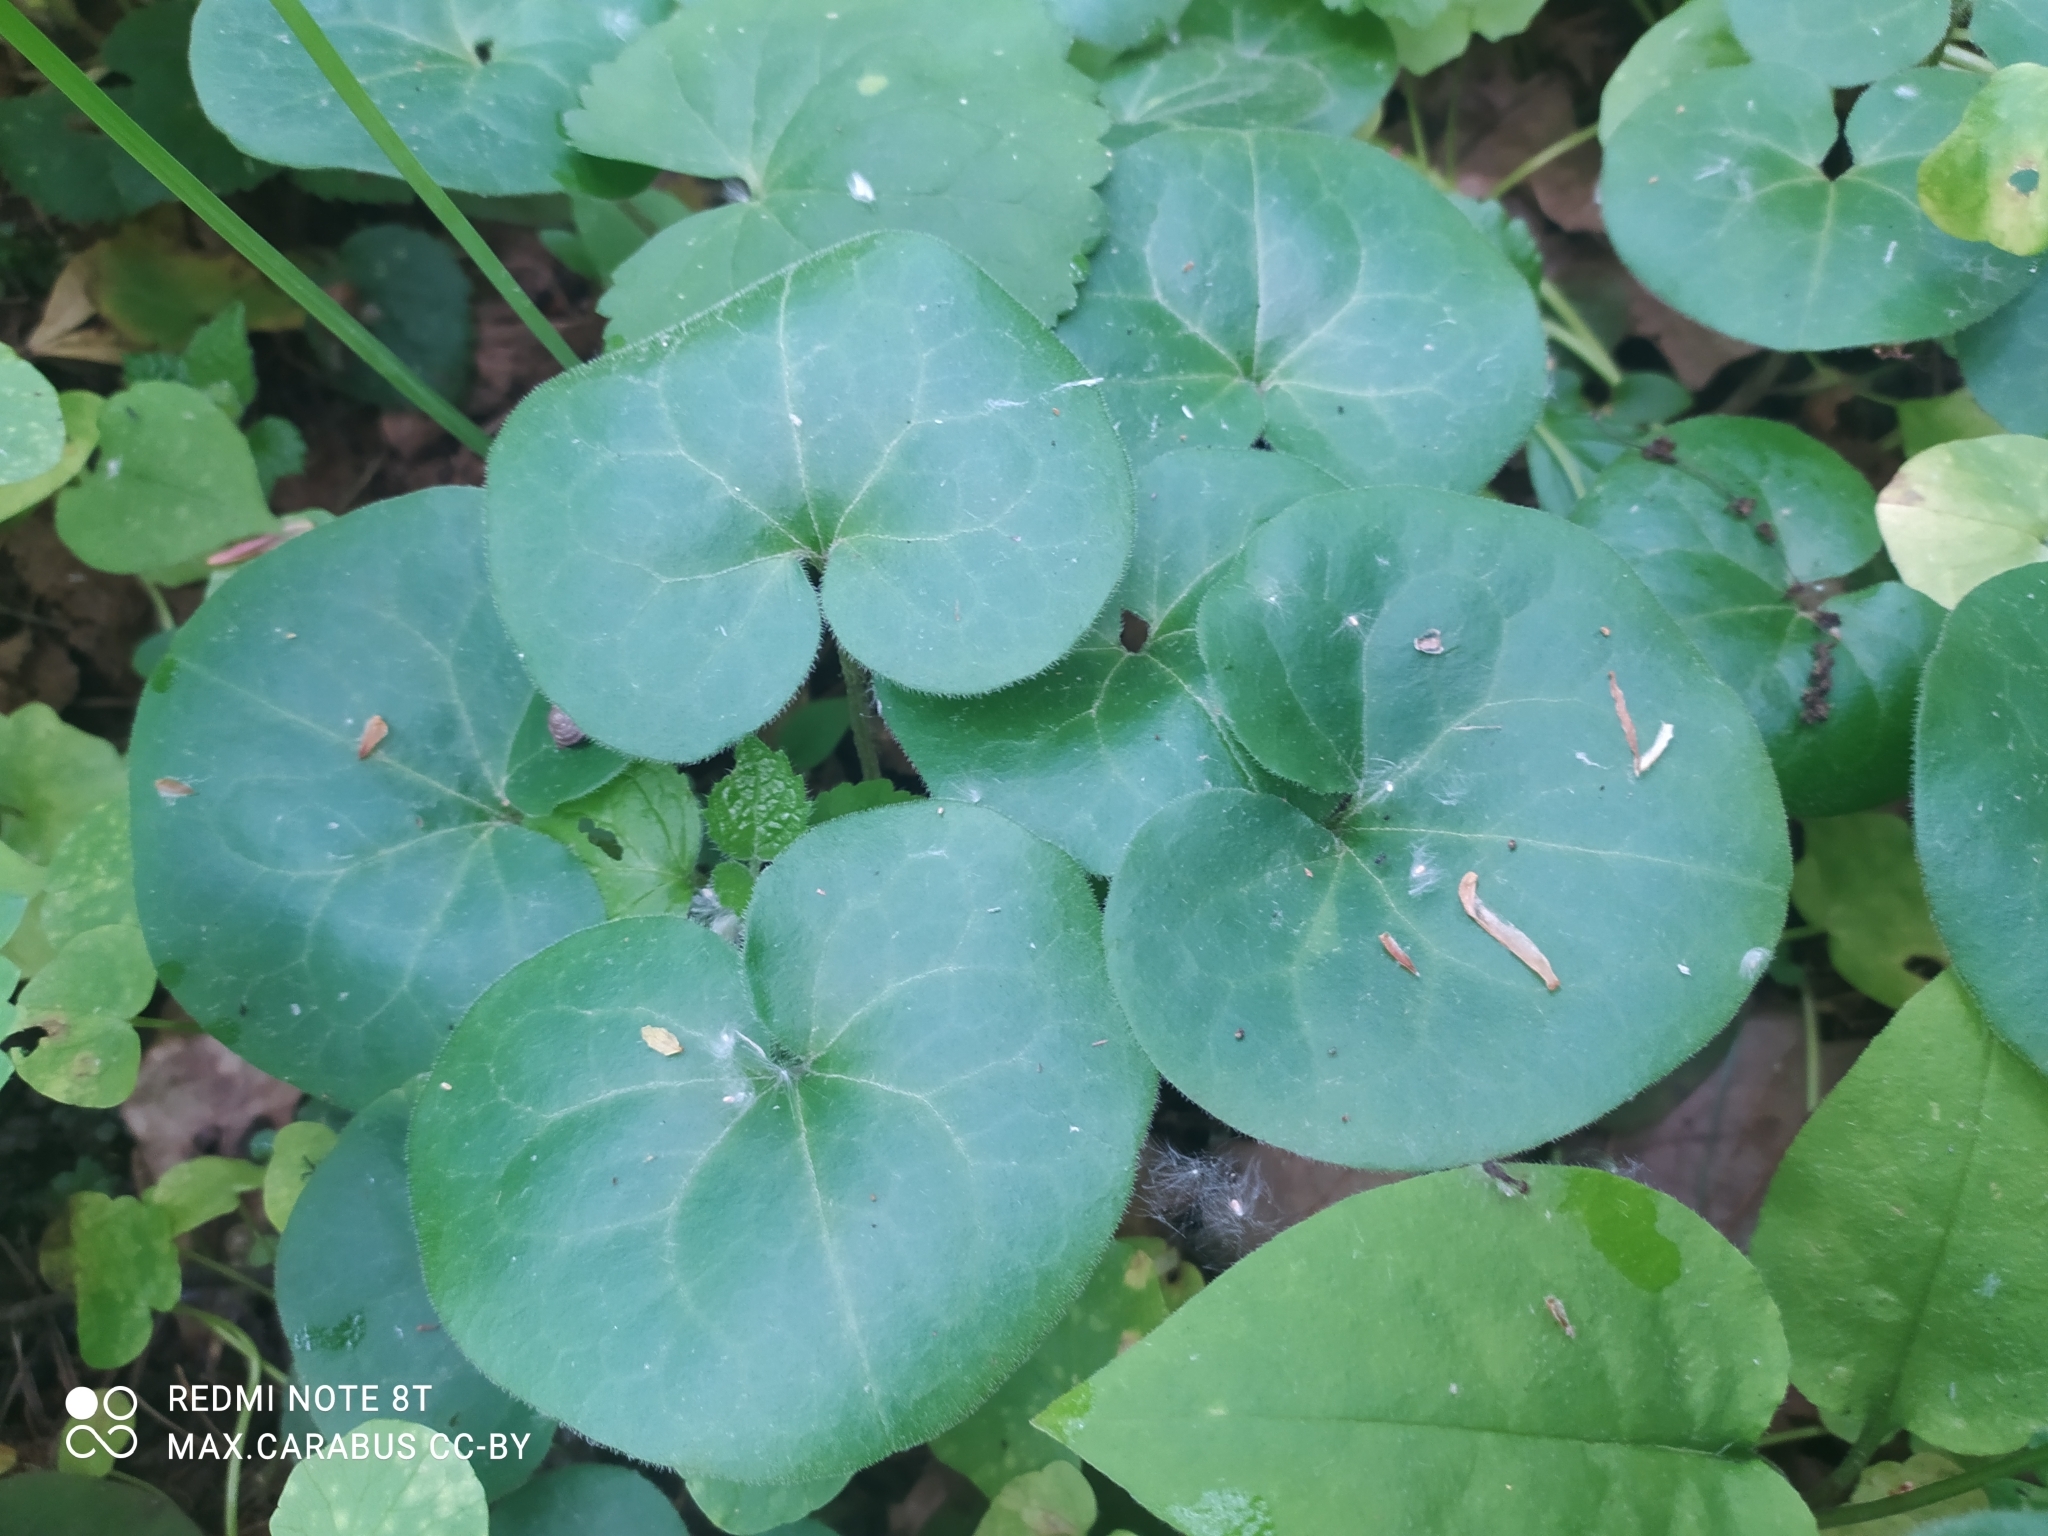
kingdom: Plantae
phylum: Tracheophyta
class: Magnoliopsida
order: Piperales
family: Aristolochiaceae
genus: Asarum
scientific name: Asarum europaeum
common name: Asarabacca
